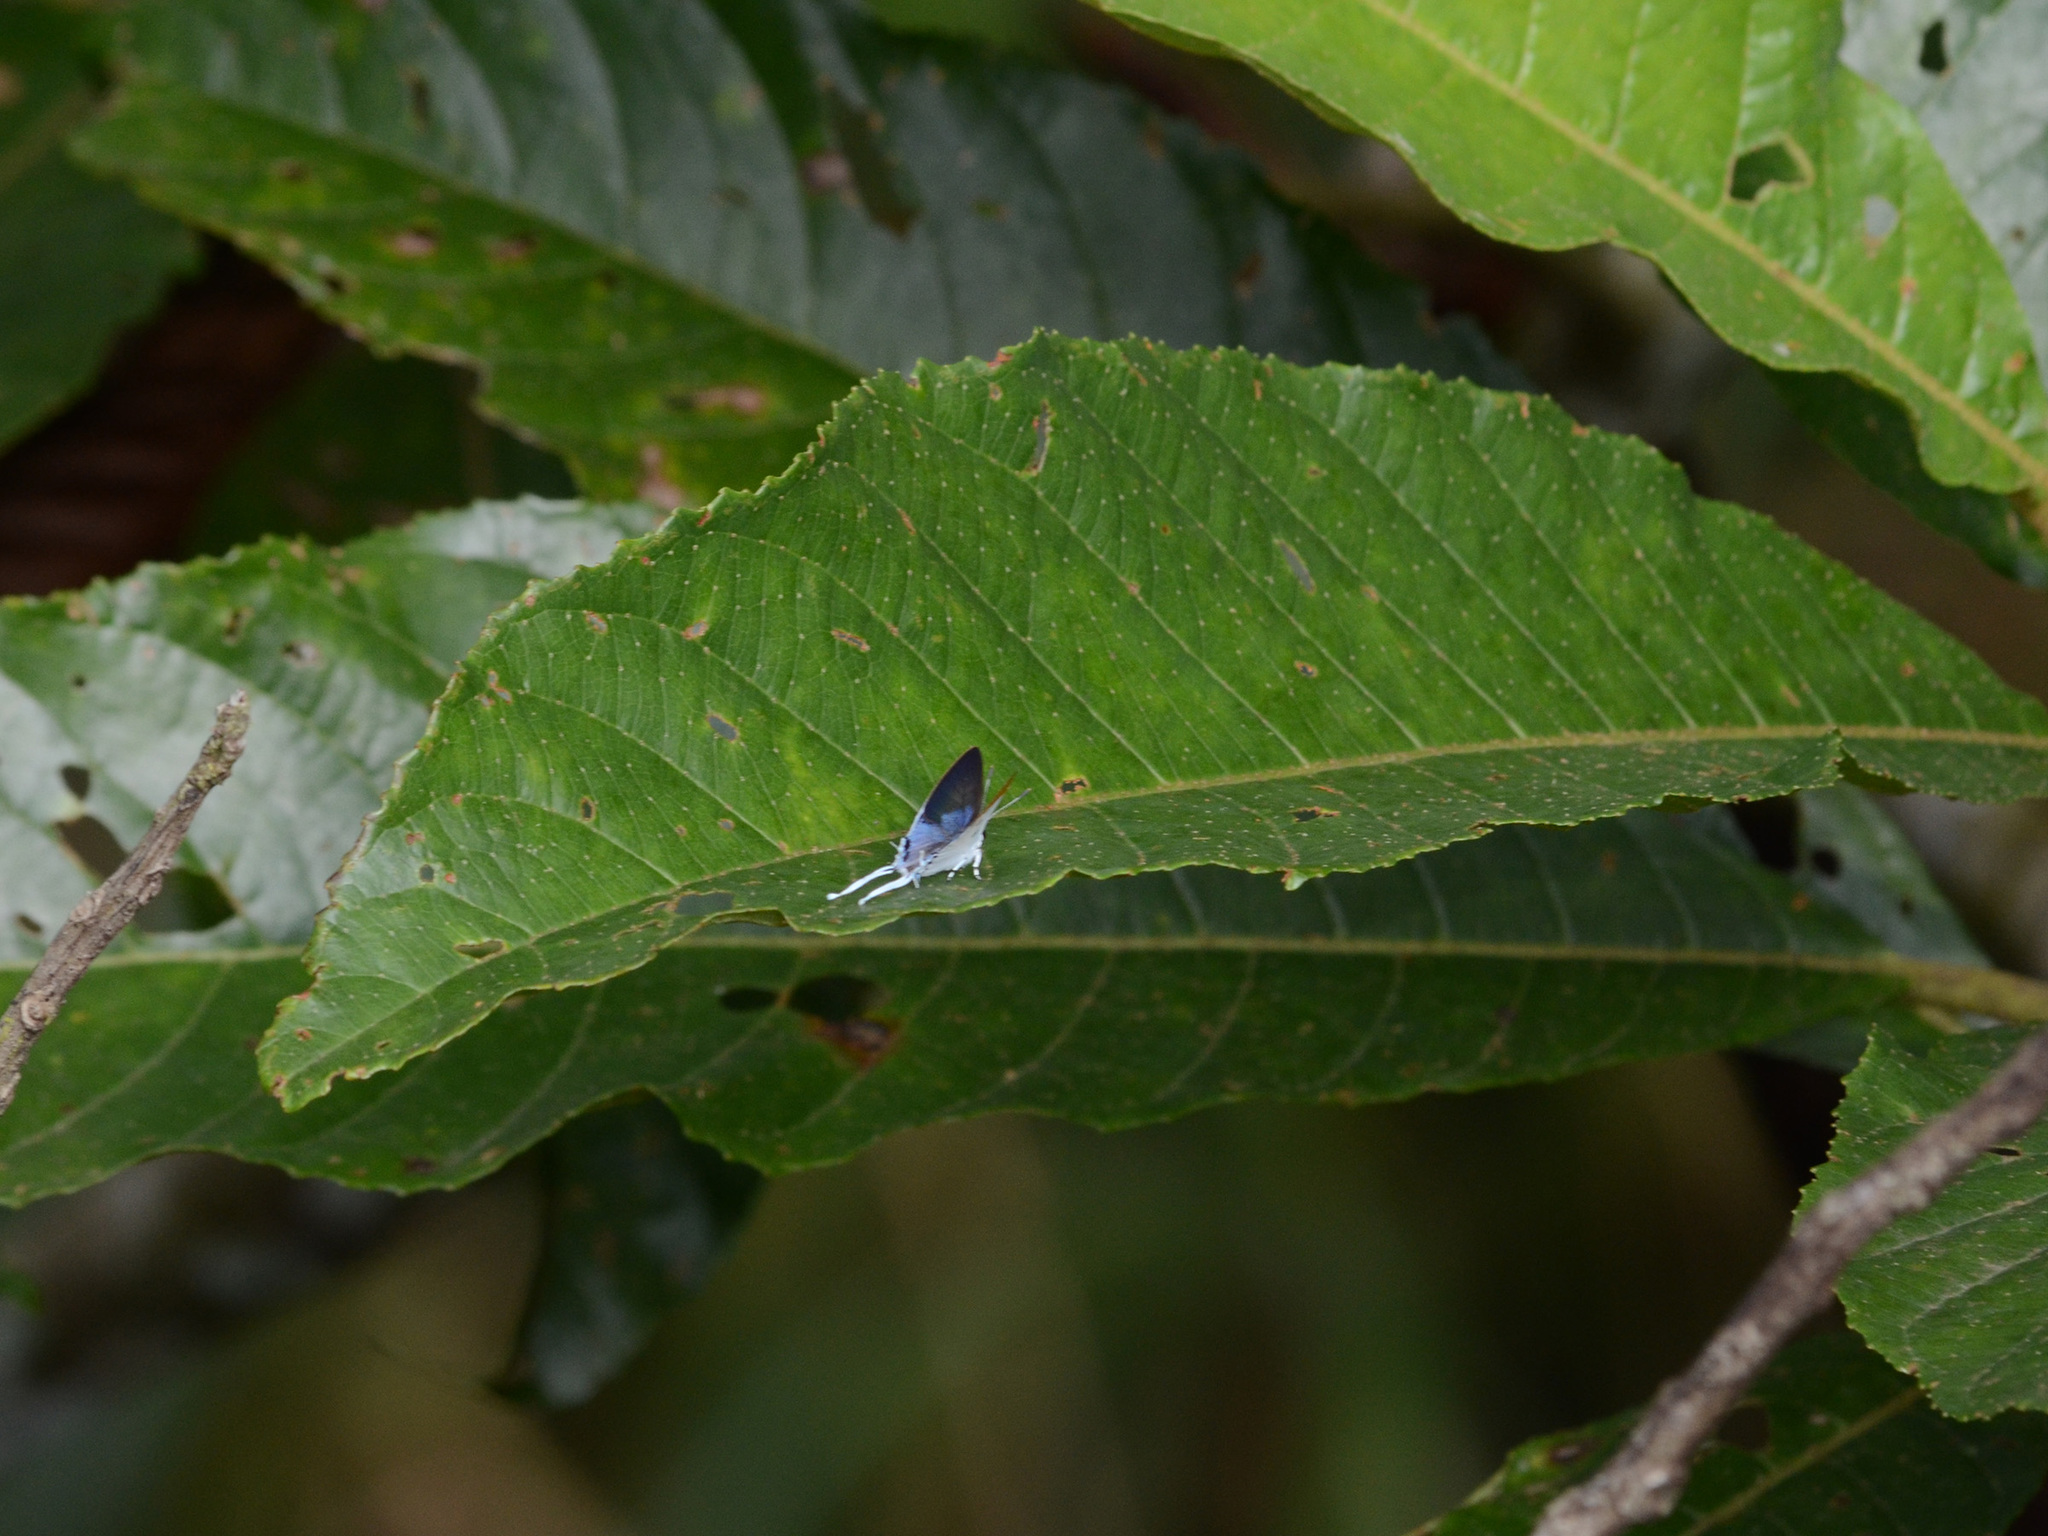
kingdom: Animalia
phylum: Arthropoda
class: Insecta
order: Lepidoptera
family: Lycaenidae
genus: Suasa
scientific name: Suasa lisides
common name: Red imperial
